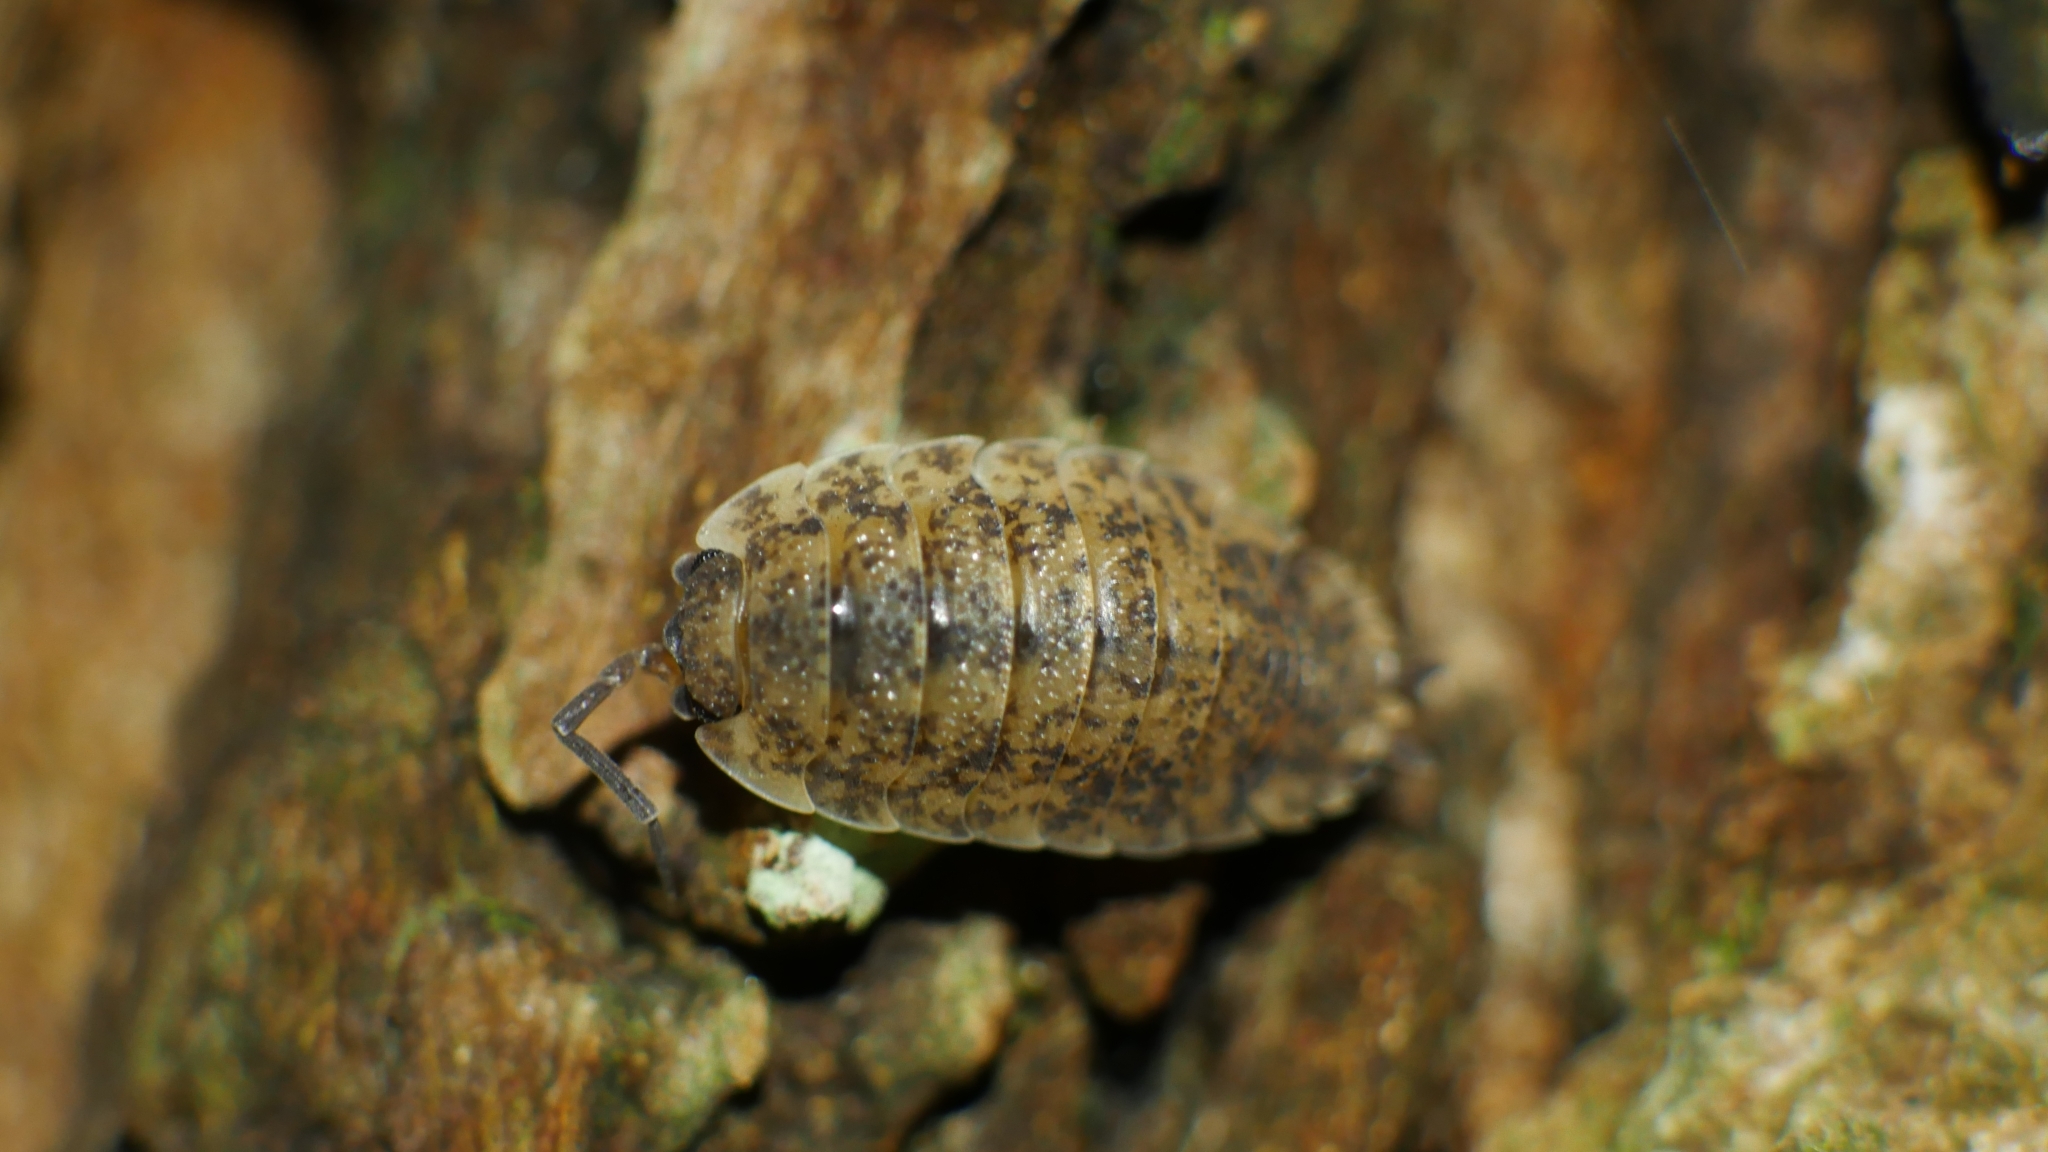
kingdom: Animalia
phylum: Arthropoda
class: Malacostraca
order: Isopoda
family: Porcellionidae
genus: Porcellio
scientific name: Porcellio scaber
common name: Common rough woodlouse
